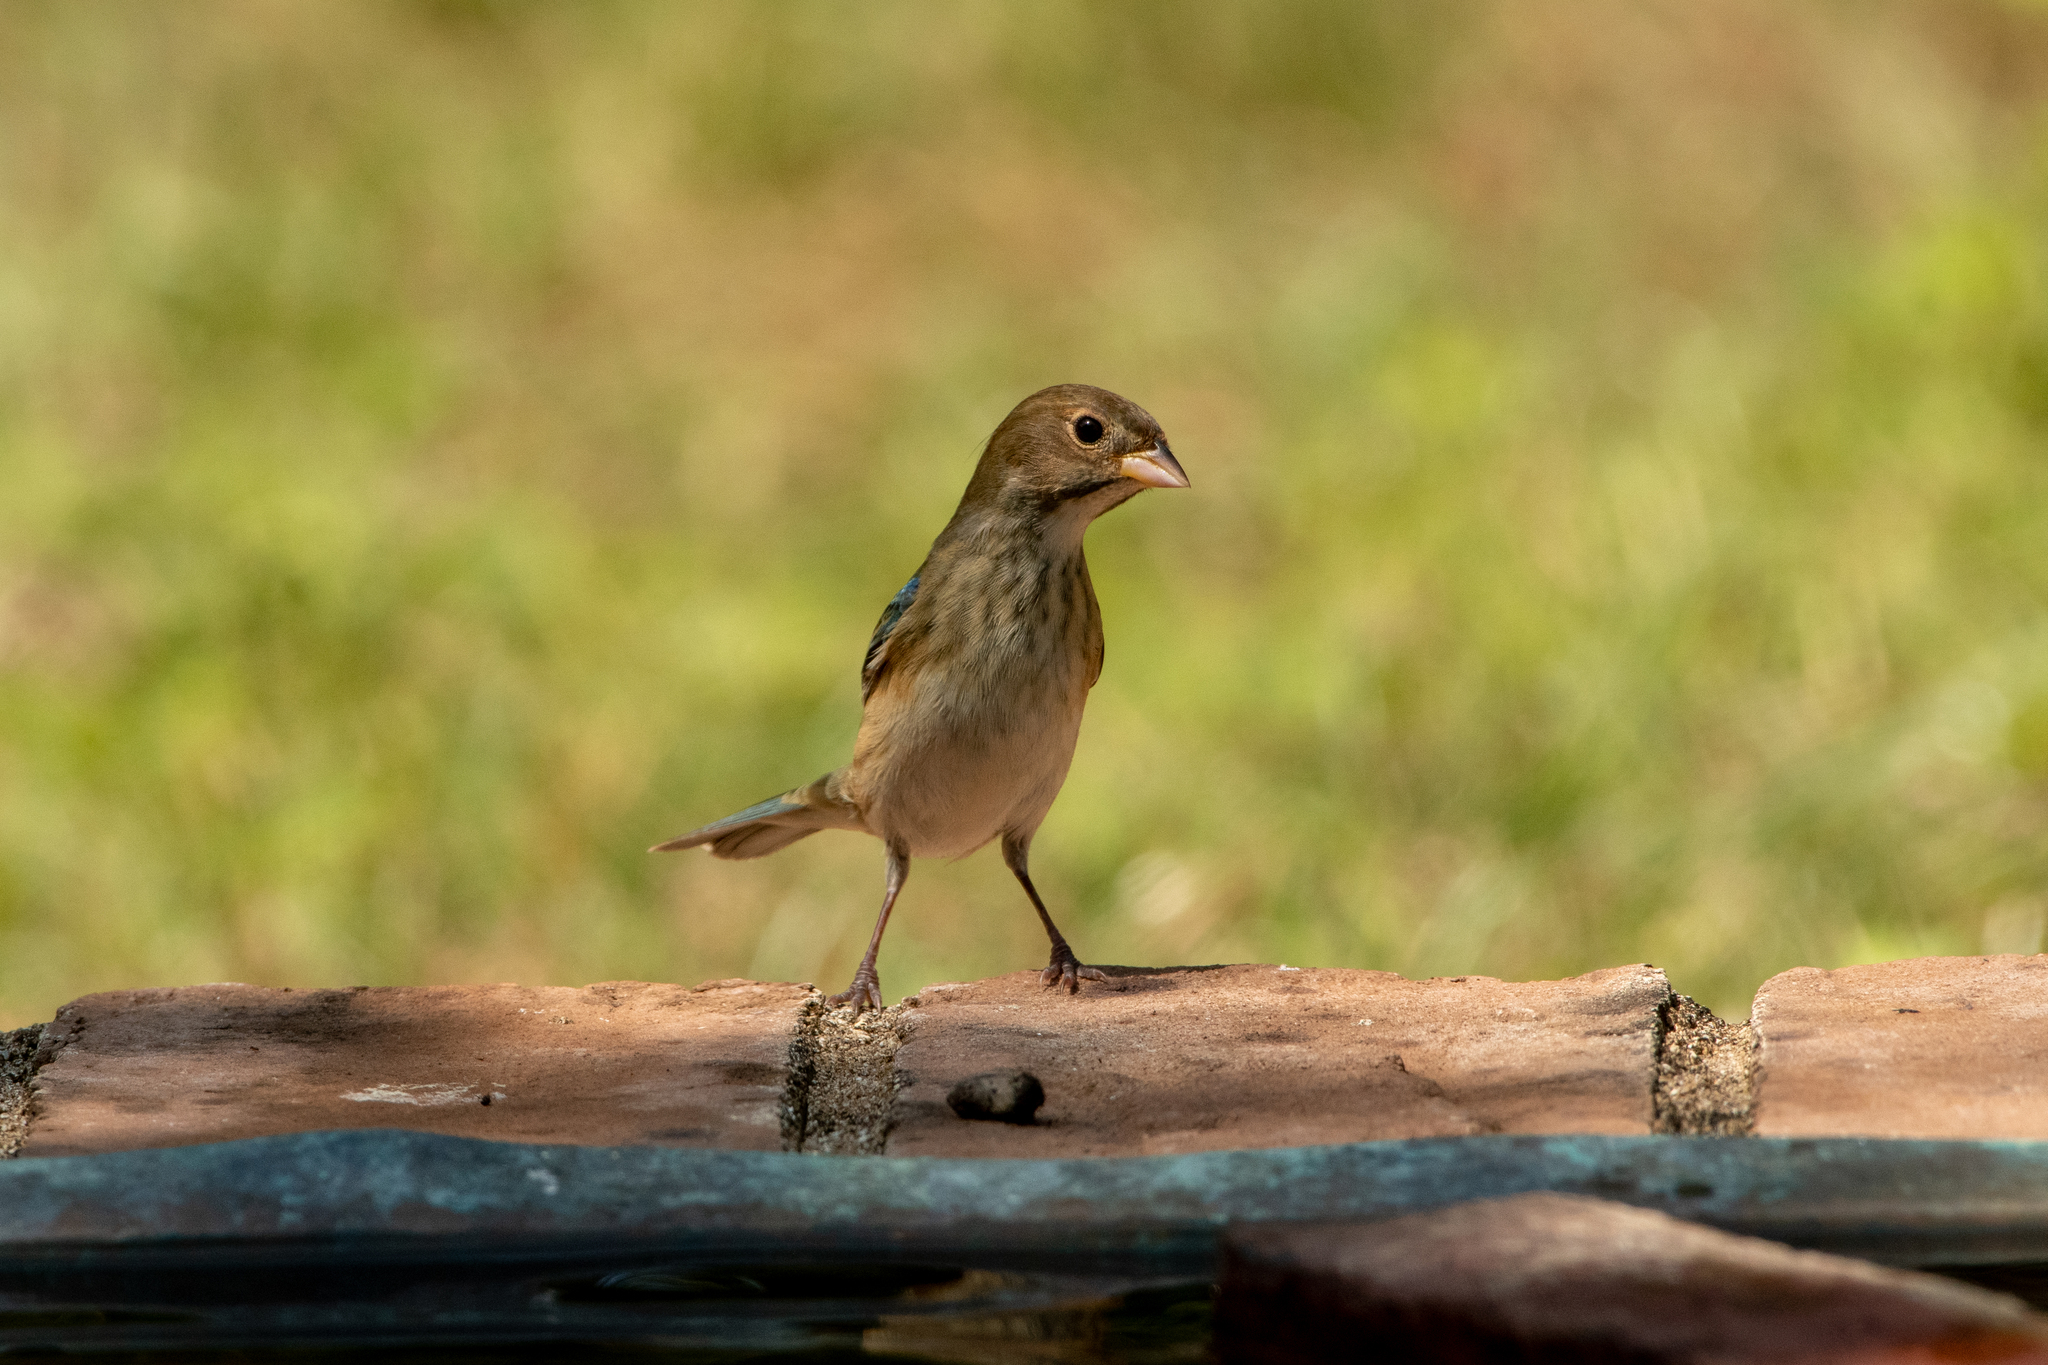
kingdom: Animalia
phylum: Chordata
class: Aves
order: Passeriformes
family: Cardinalidae
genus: Passerina
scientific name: Passerina cyanea
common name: Indigo bunting
